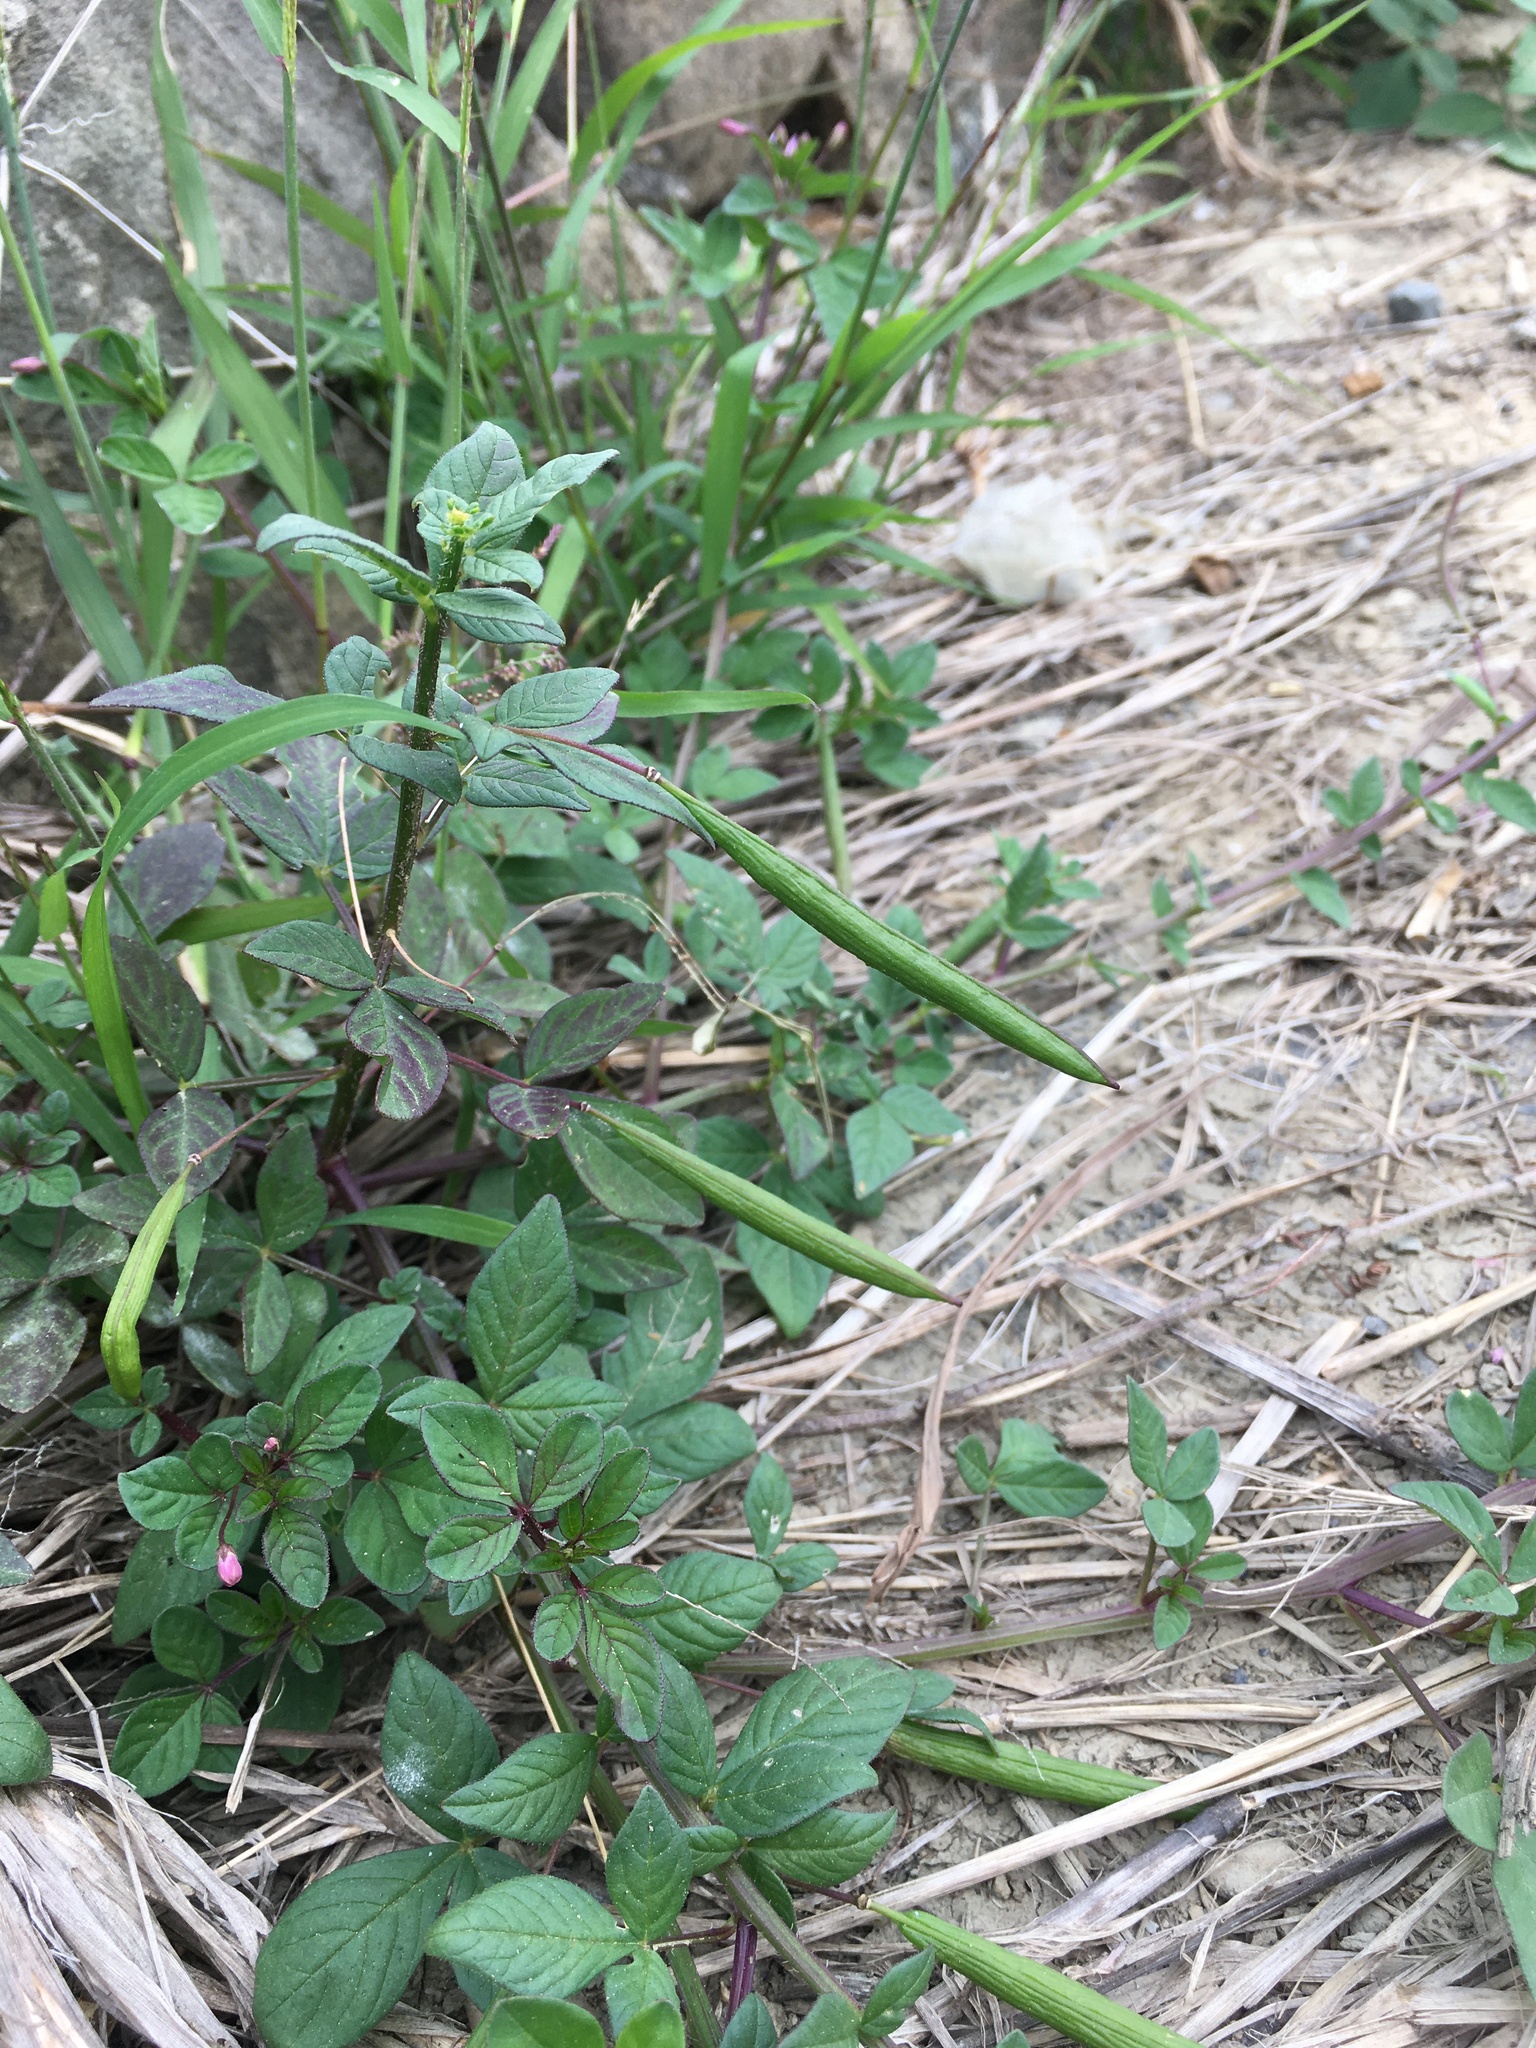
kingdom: Plantae
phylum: Tracheophyta
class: Magnoliopsida
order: Brassicales
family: Cleomaceae
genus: Sieruela
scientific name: Sieruela rutidosperma
